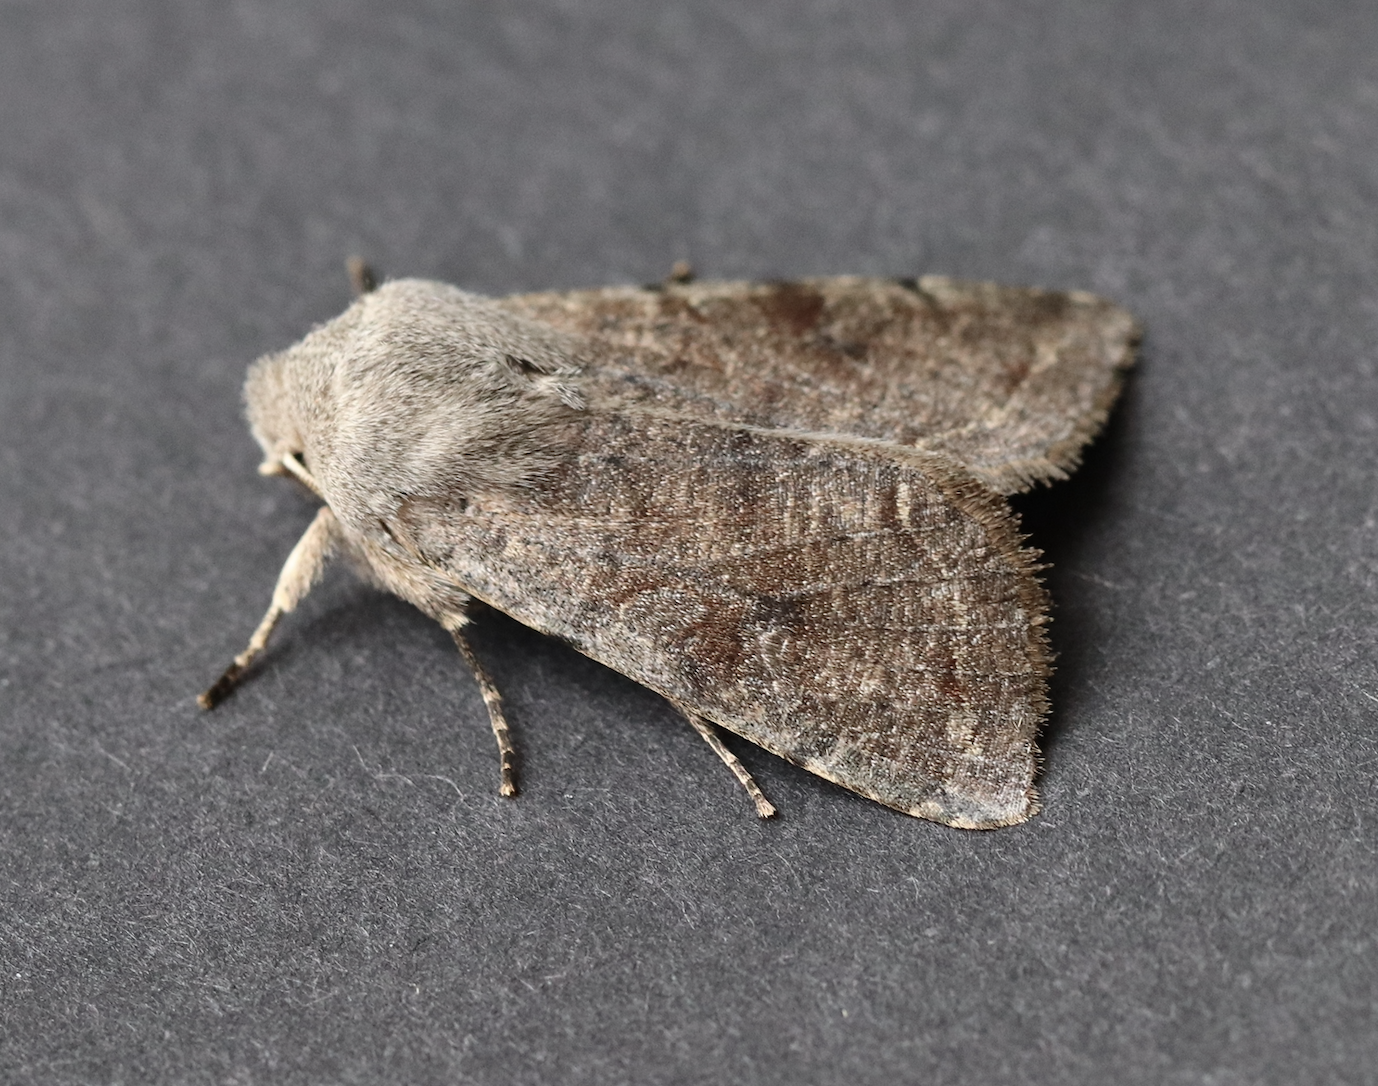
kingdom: Animalia
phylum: Arthropoda
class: Insecta
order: Lepidoptera
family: Noctuidae
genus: Orthosia
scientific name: Orthosia incerta
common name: Clouded drab
